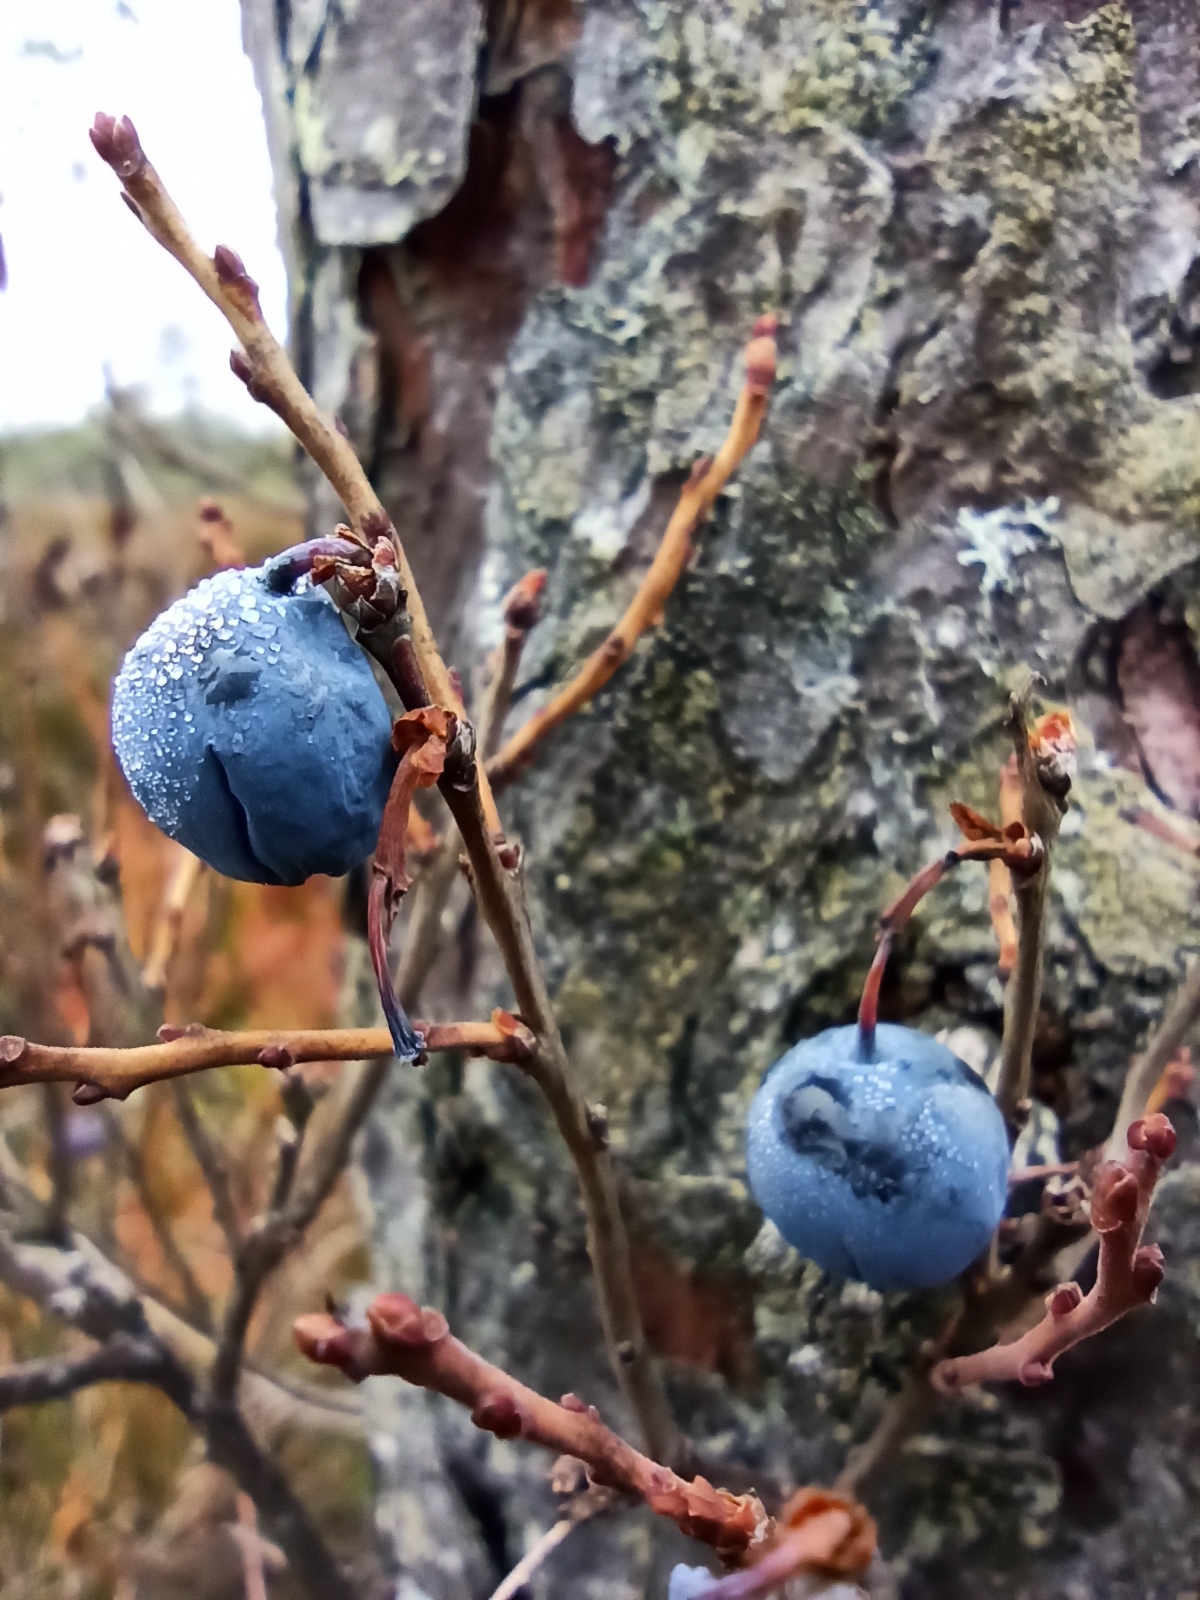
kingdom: Plantae
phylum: Tracheophyta
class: Magnoliopsida
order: Ericales
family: Ericaceae
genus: Vaccinium
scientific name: Vaccinium uliginosum
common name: Bog bilberry
